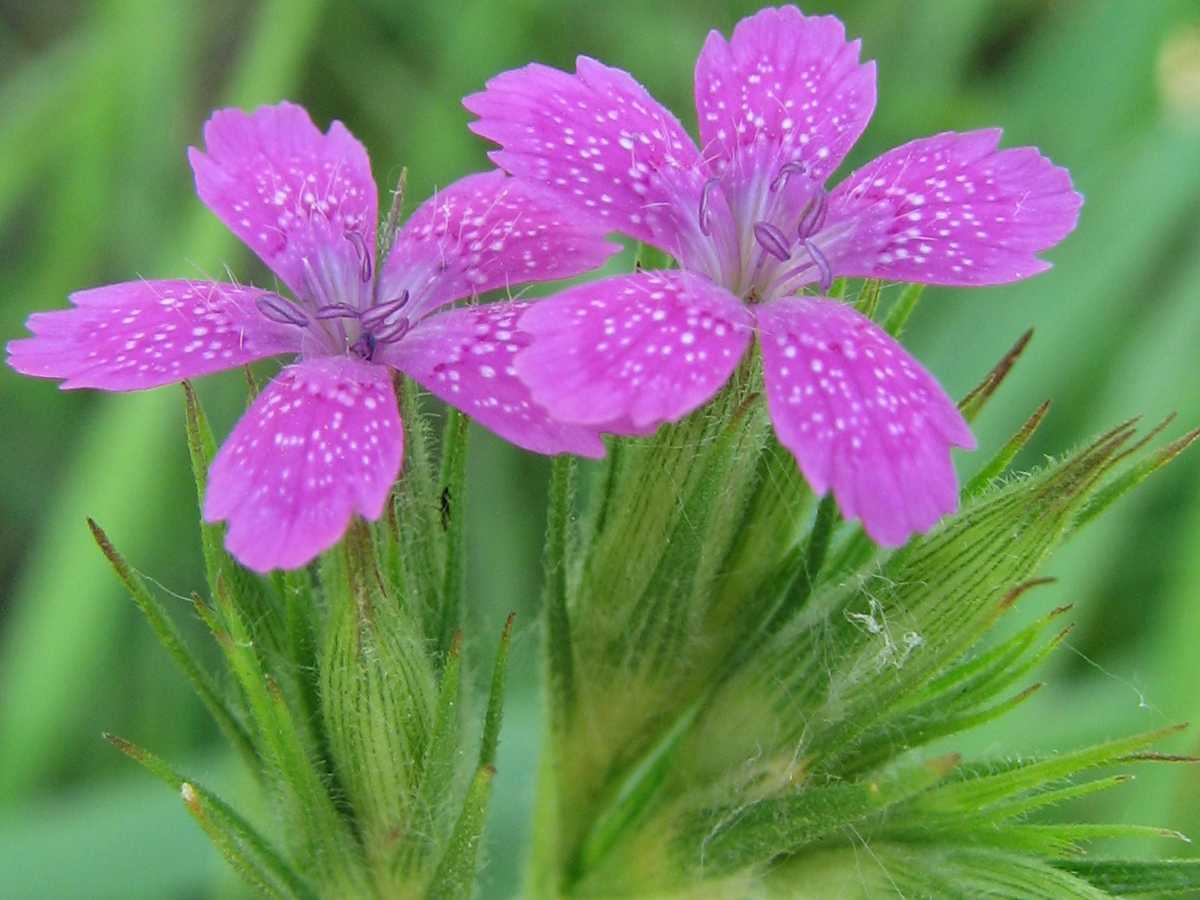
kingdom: Plantae
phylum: Tracheophyta
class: Magnoliopsida
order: Caryophyllales
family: Caryophyllaceae
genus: Dianthus
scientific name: Dianthus armeria
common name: Deptford pink
